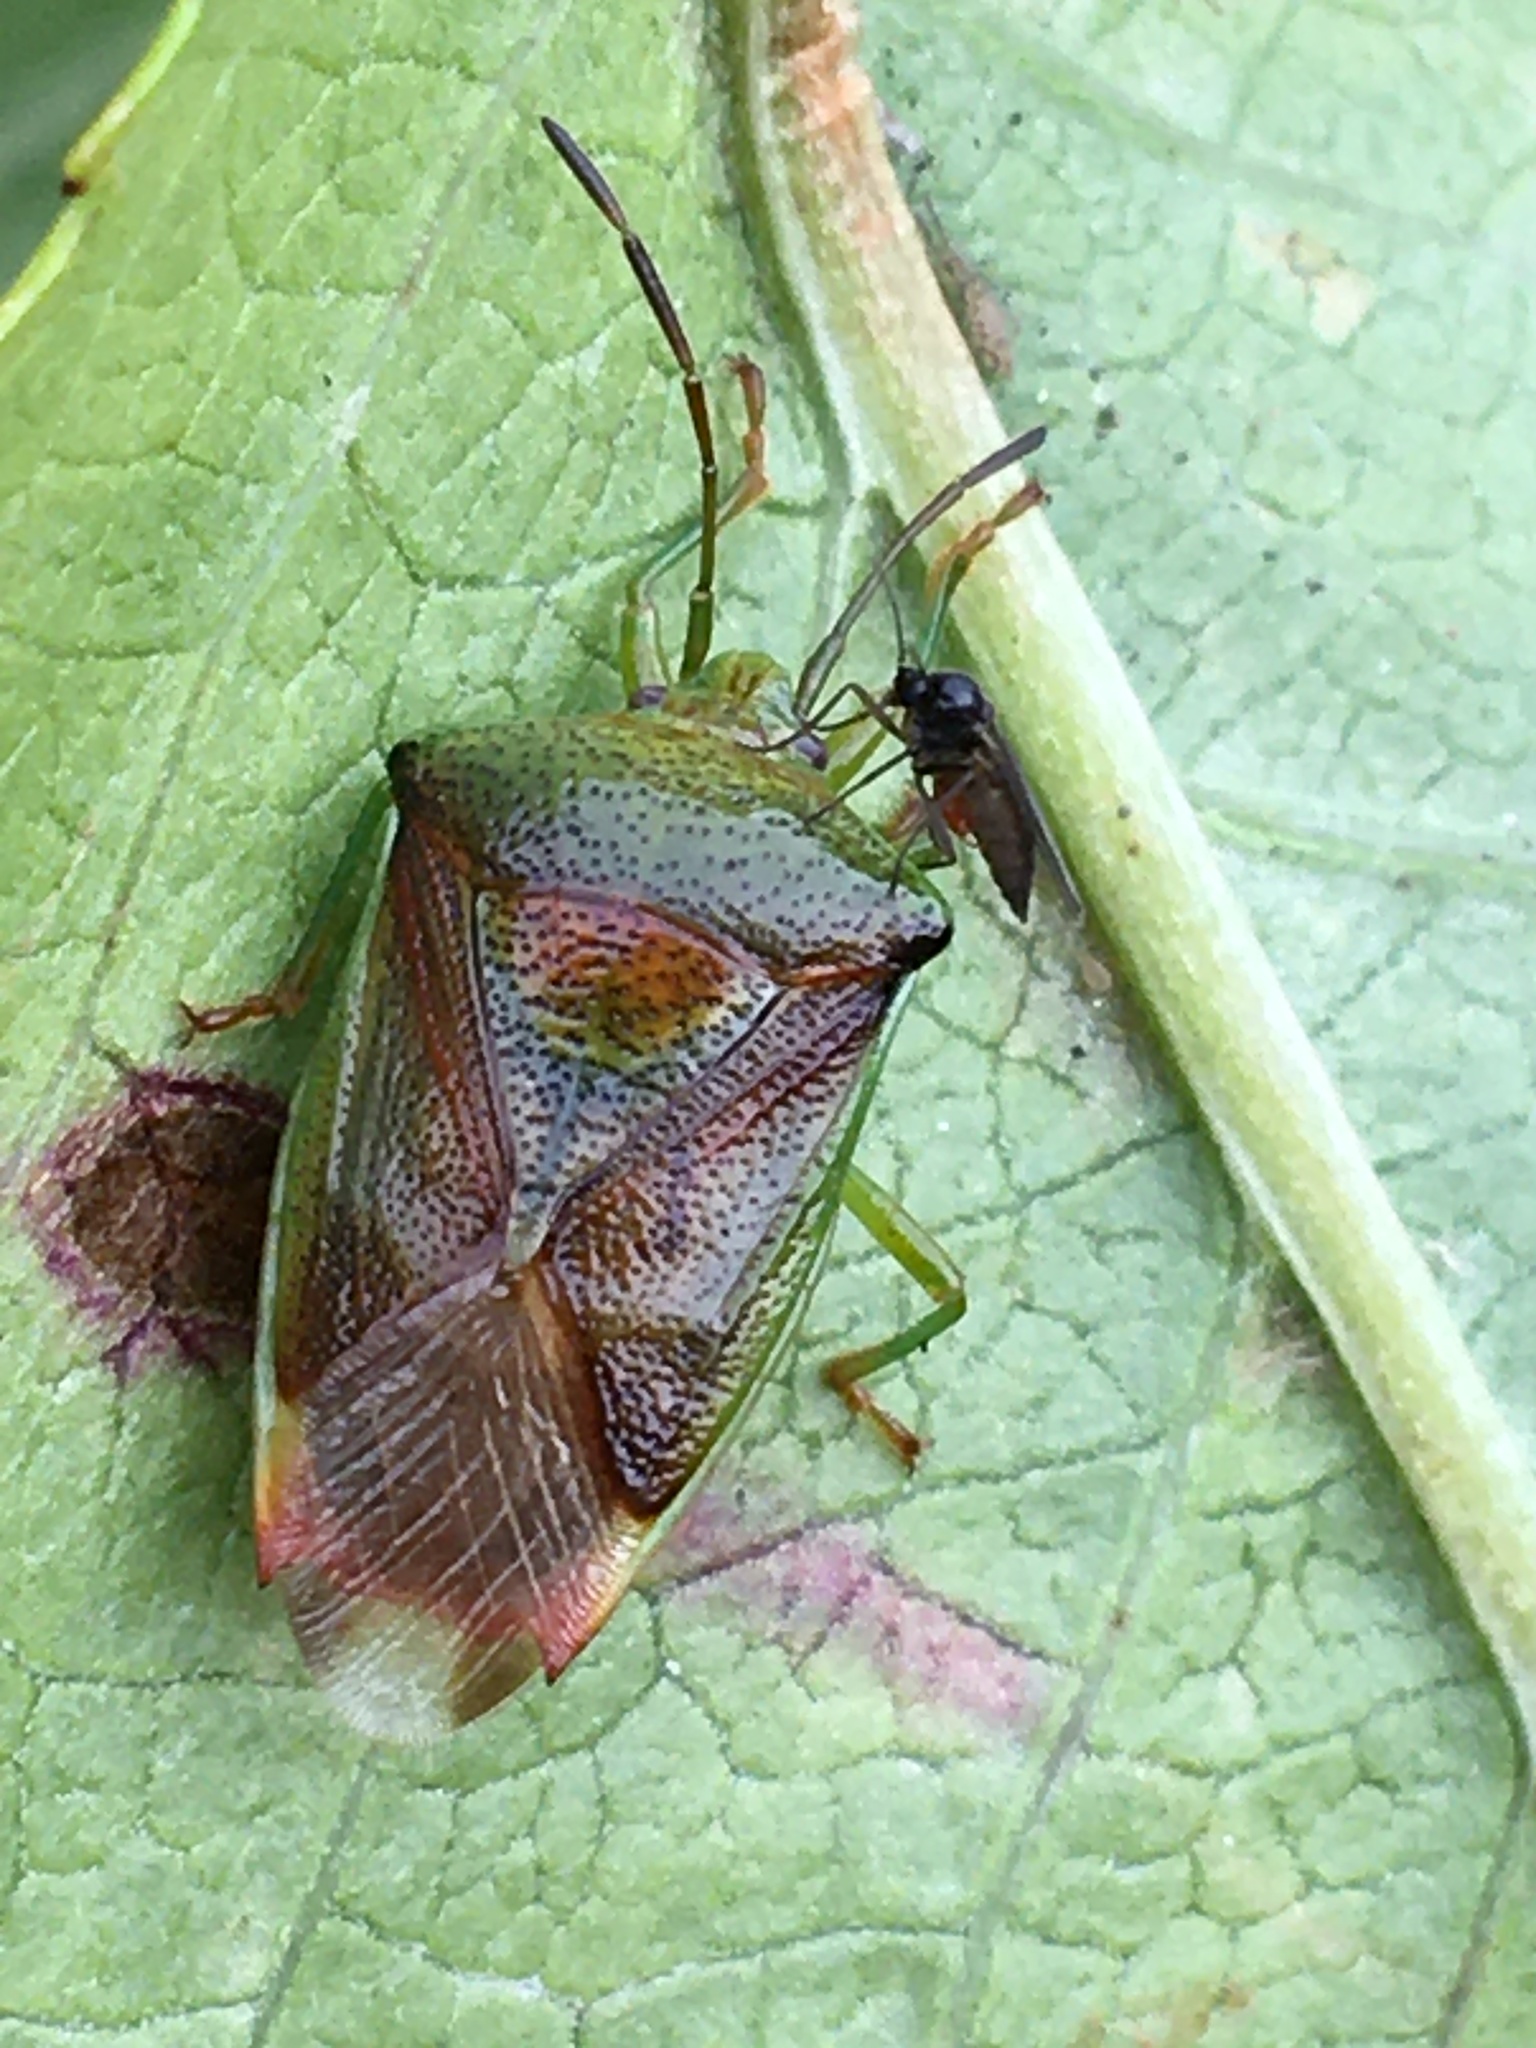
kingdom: Animalia
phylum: Arthropoda
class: Insecta
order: Hemiptera
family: Acanthosomatidae
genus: Elasmostethus
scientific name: Elasmostethus interstinctus
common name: Birch shieldbug
